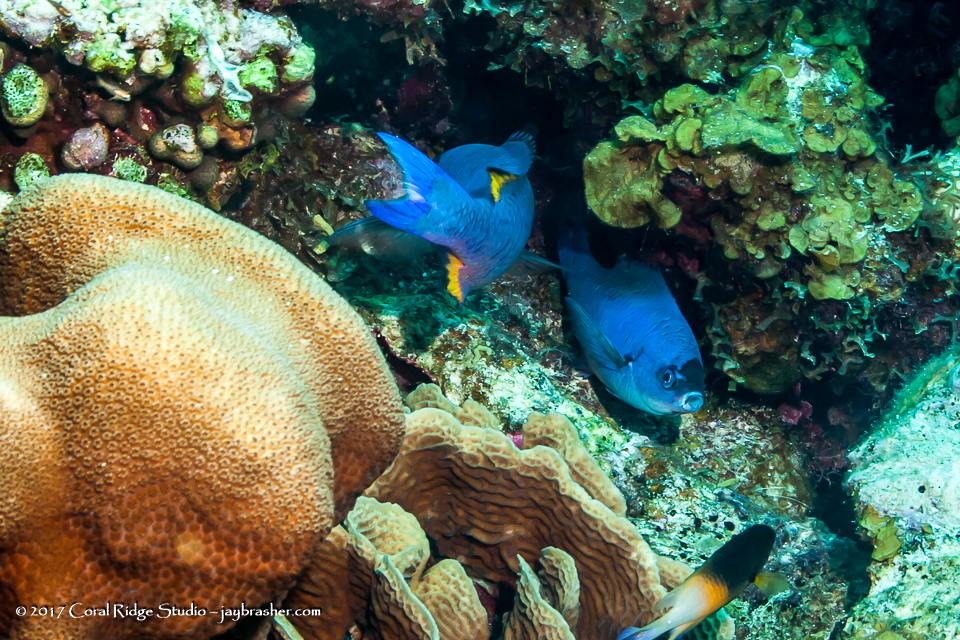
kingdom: Animalia
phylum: Chordata
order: Perciformes
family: Labridae
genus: Bodianus
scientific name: Bodianus
